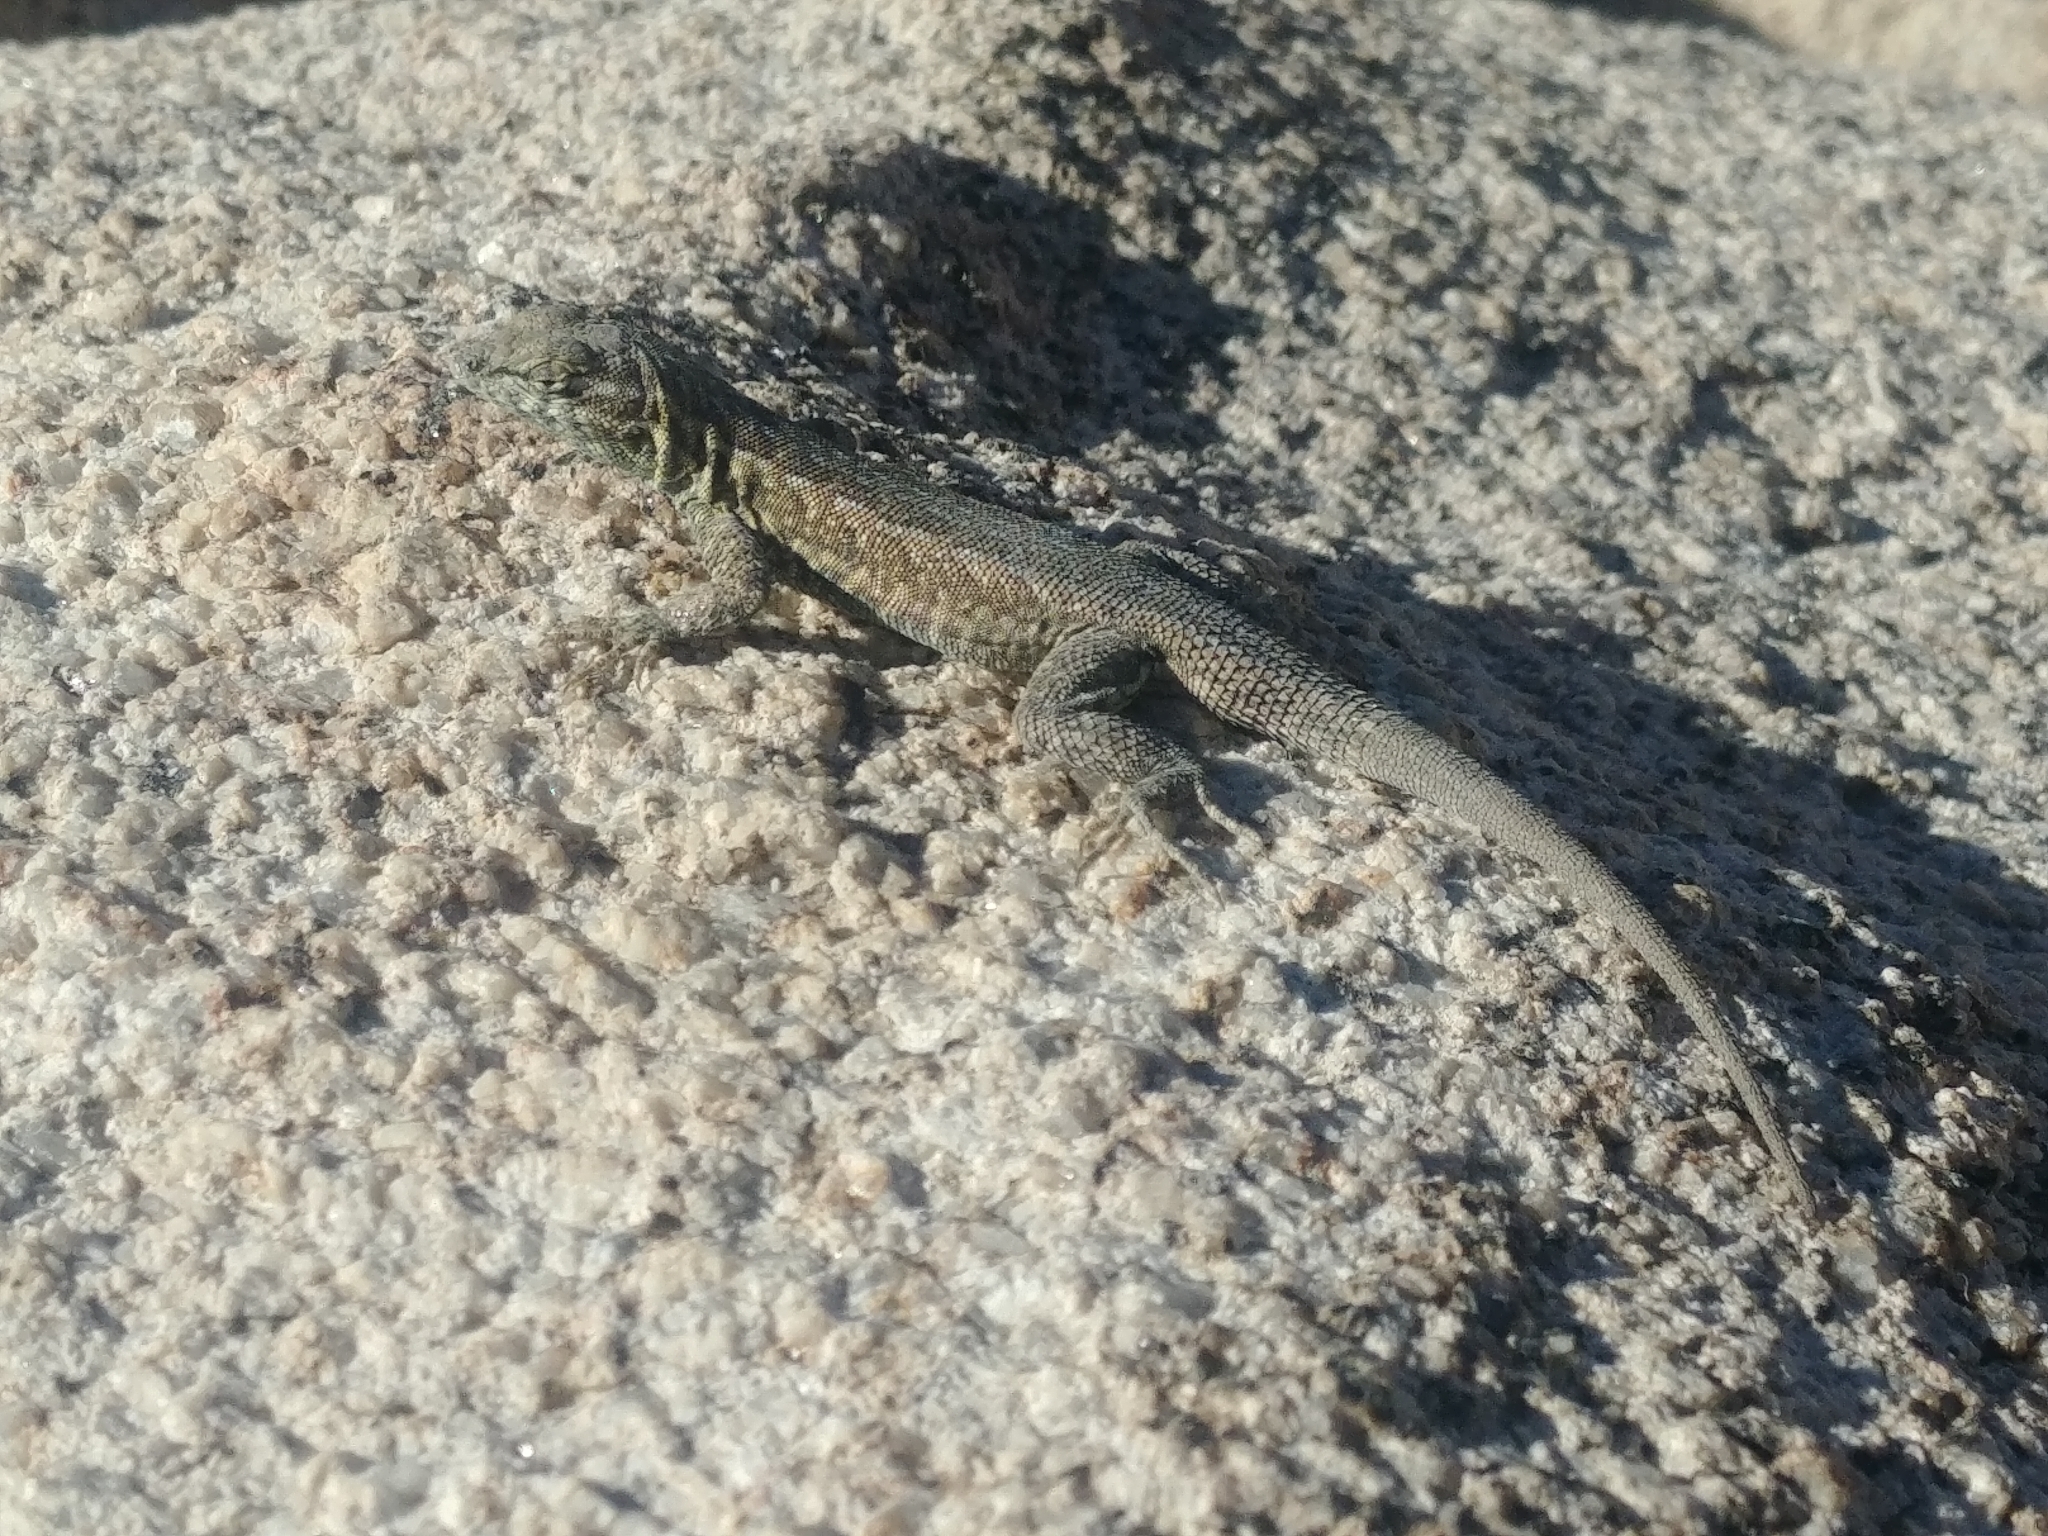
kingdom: Animalia
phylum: Chordata
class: Squamata
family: Phrynosomatidae
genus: Uta
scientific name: Uta stansburiana
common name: Side-blotched lizard
